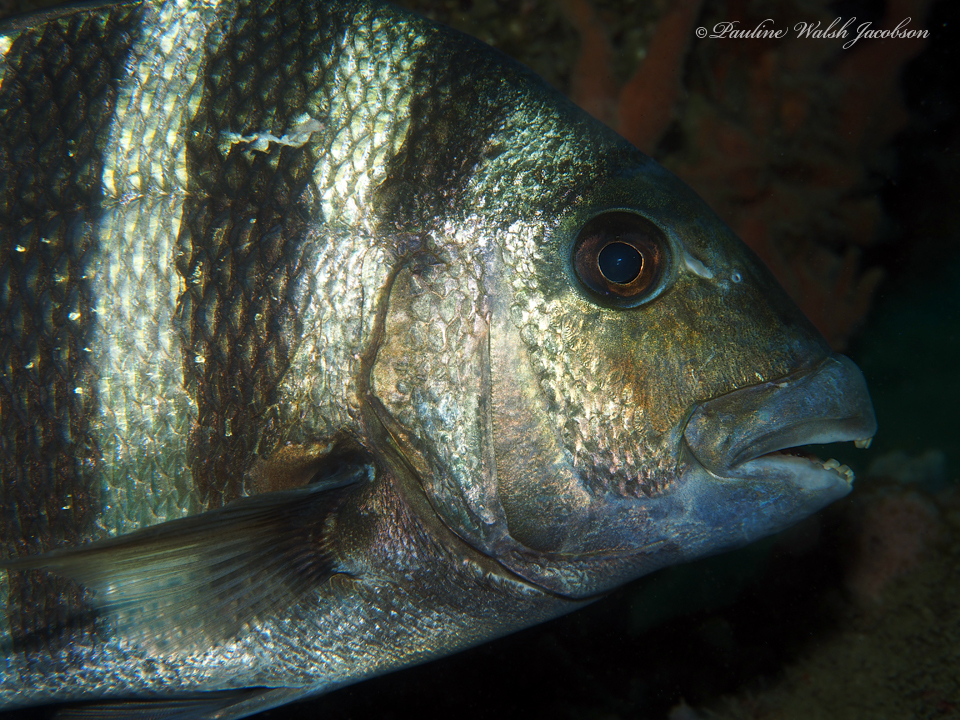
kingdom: Animalia
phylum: Chordata
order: Perciformes
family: Sparidae
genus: Archosargus
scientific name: Archosargus probatocephalus
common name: Sheepshead
